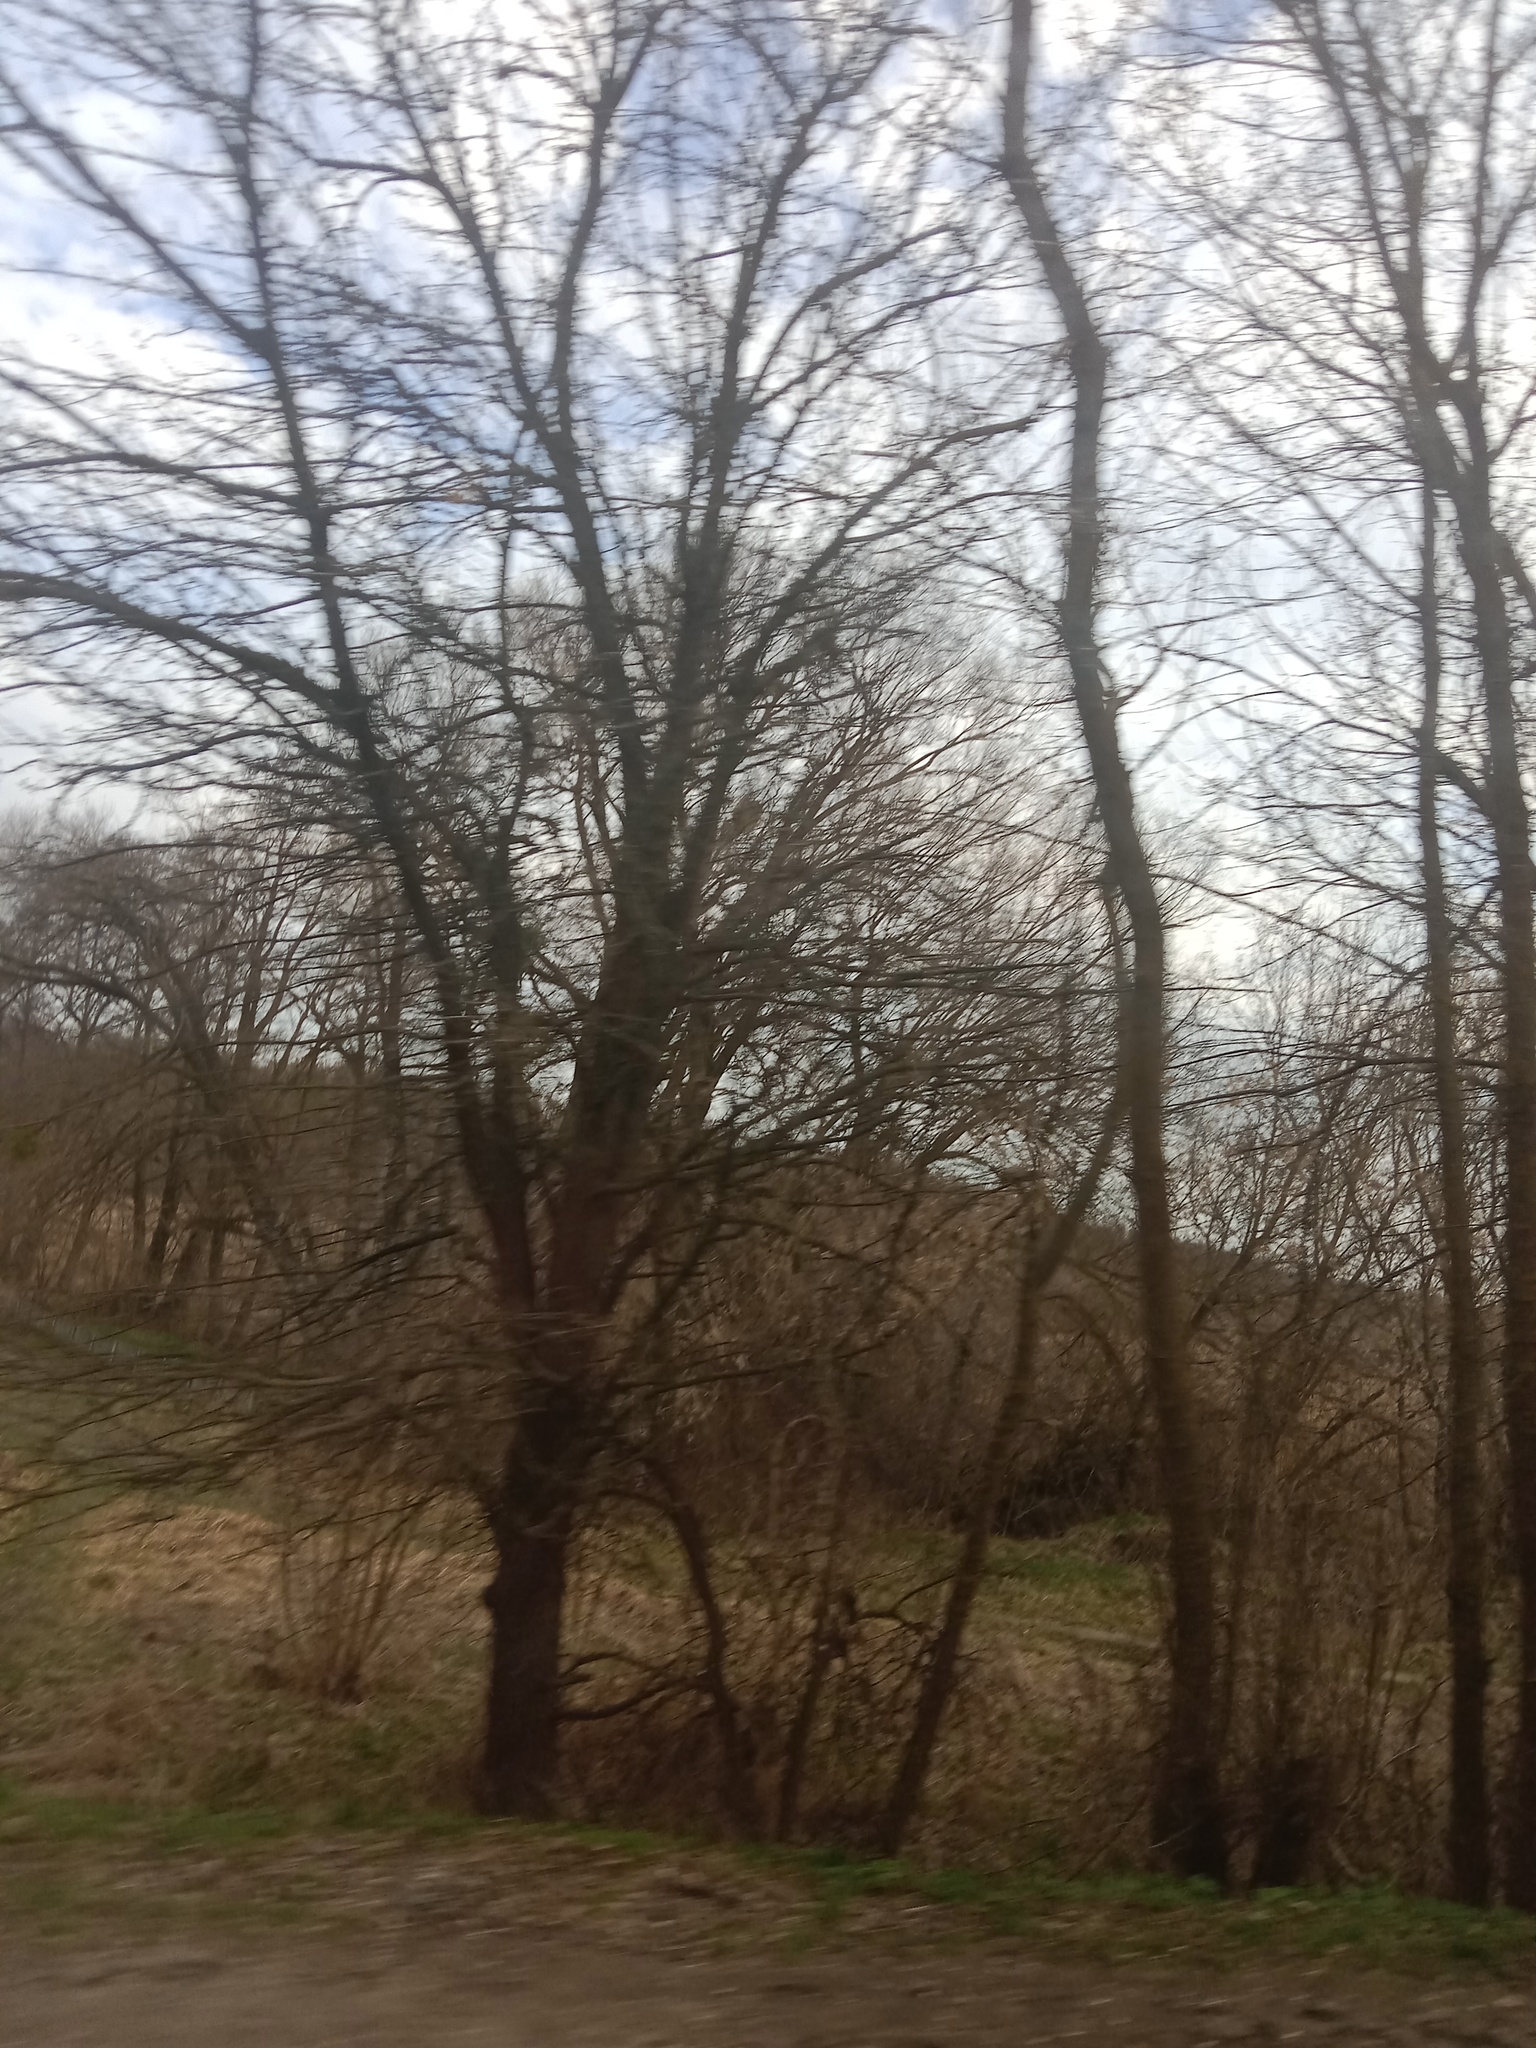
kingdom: Plantae
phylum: Tracheophyta
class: Magnoliopsida
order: Santalales
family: Viscaceae
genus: Viscum
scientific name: Viscum album
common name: Mistletoe
